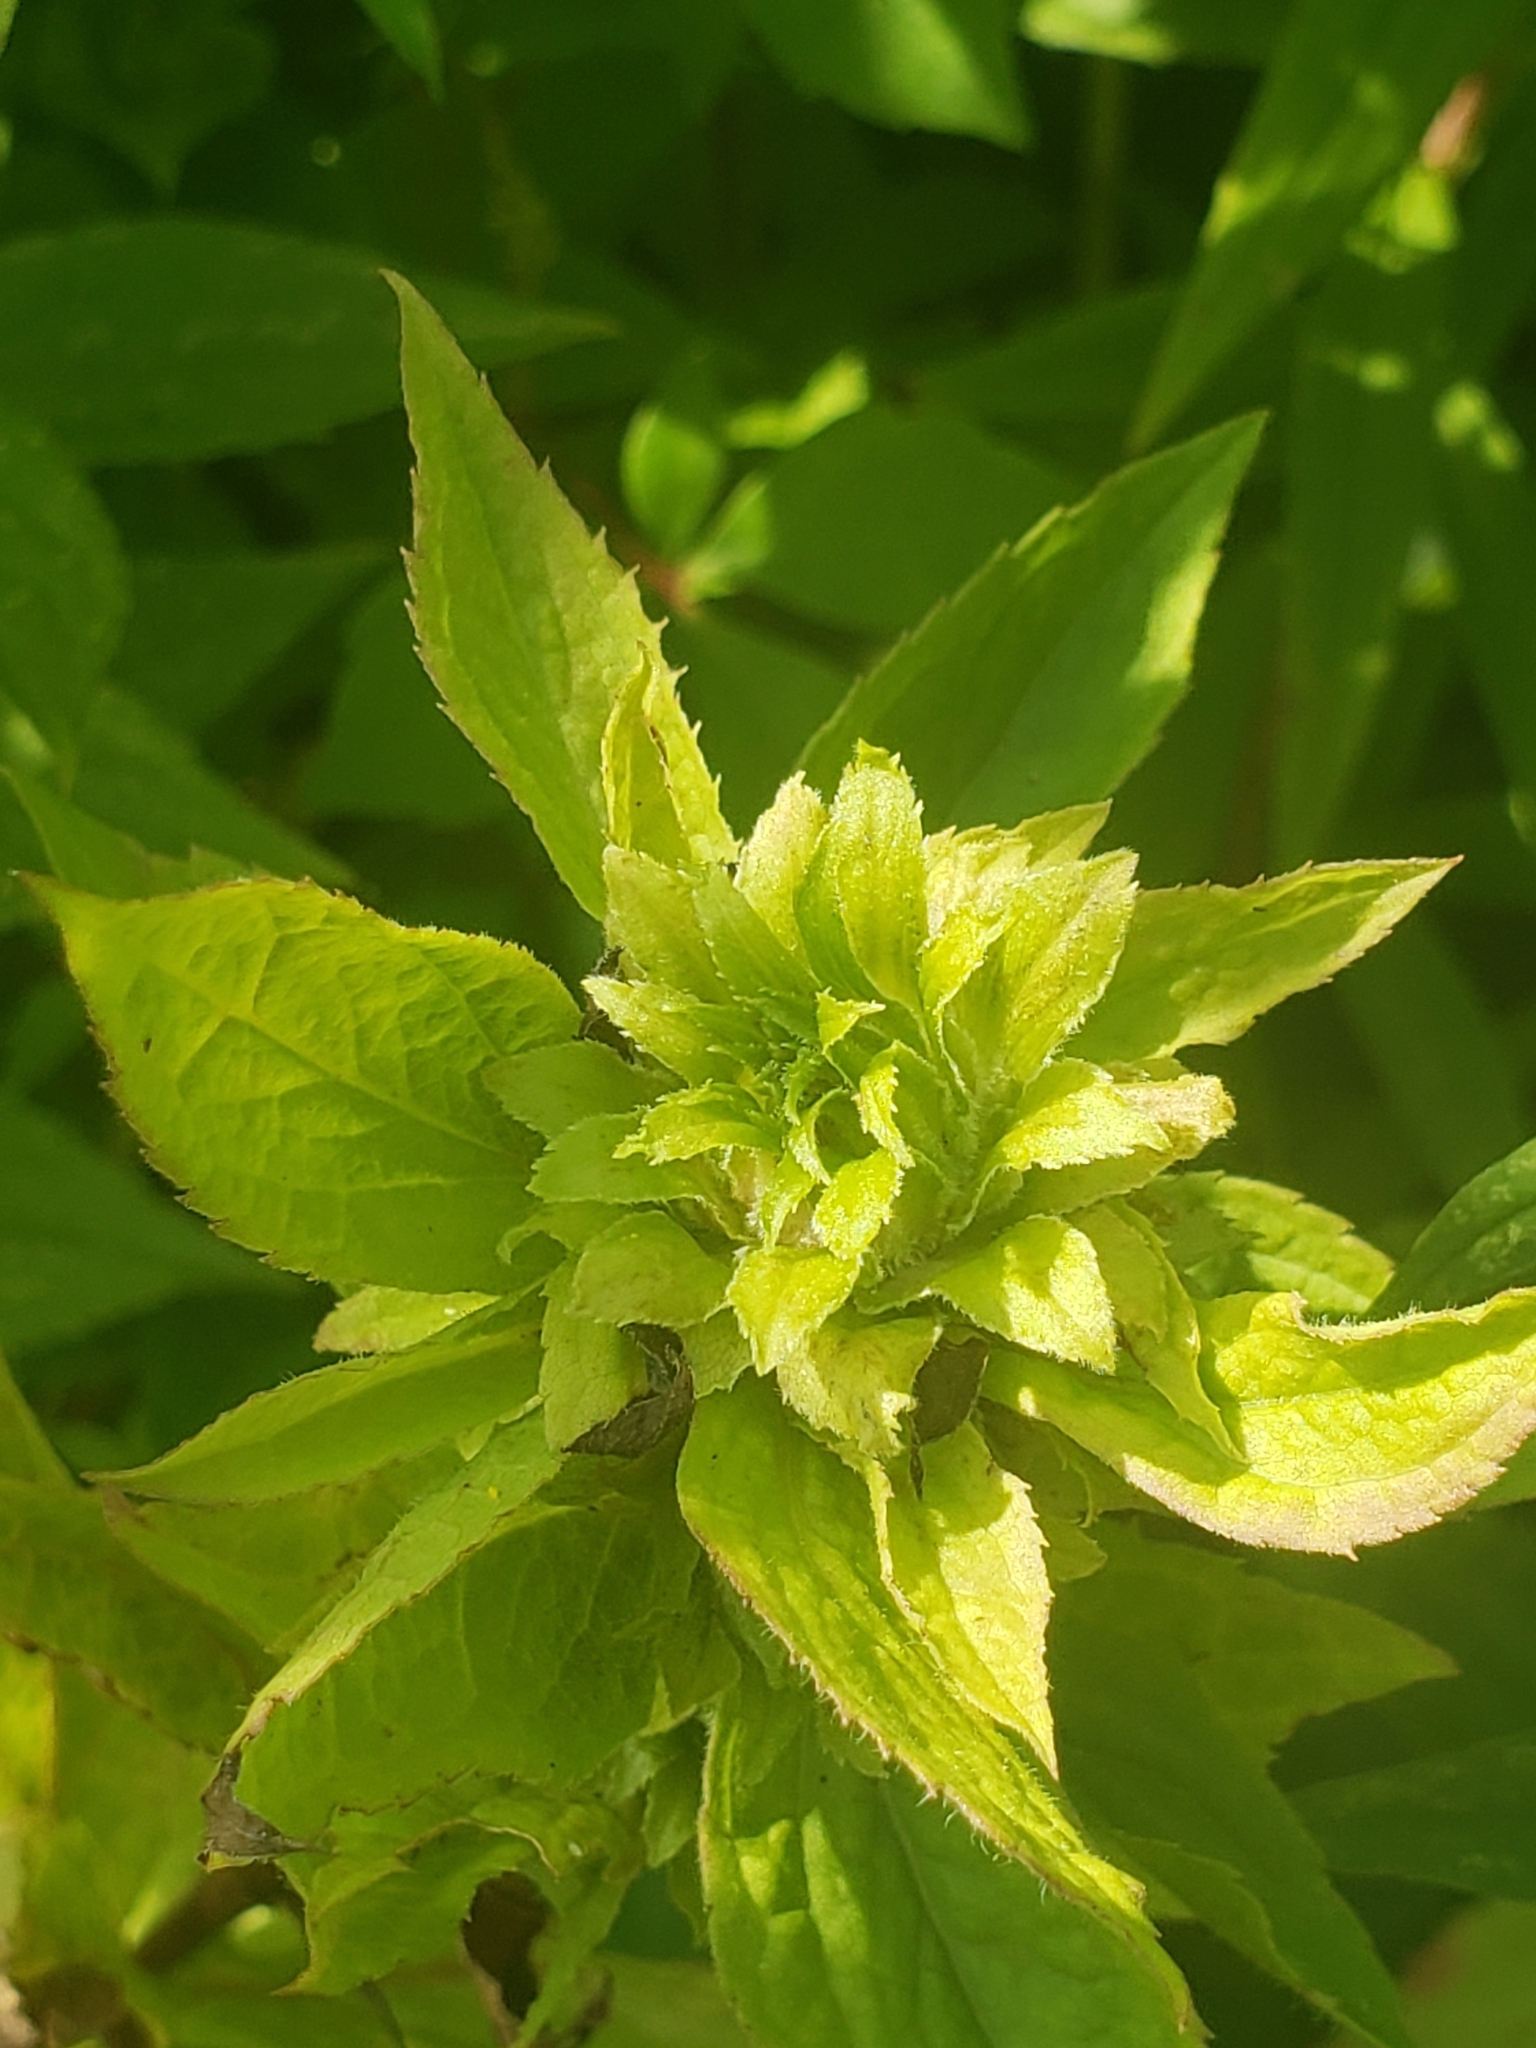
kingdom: Animalia
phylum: Arthropoda
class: Insecta
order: Diptera
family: Tephritidae
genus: Procecidochares
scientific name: Procecidochares atra
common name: Goldenrod brussels sprout gall fly
